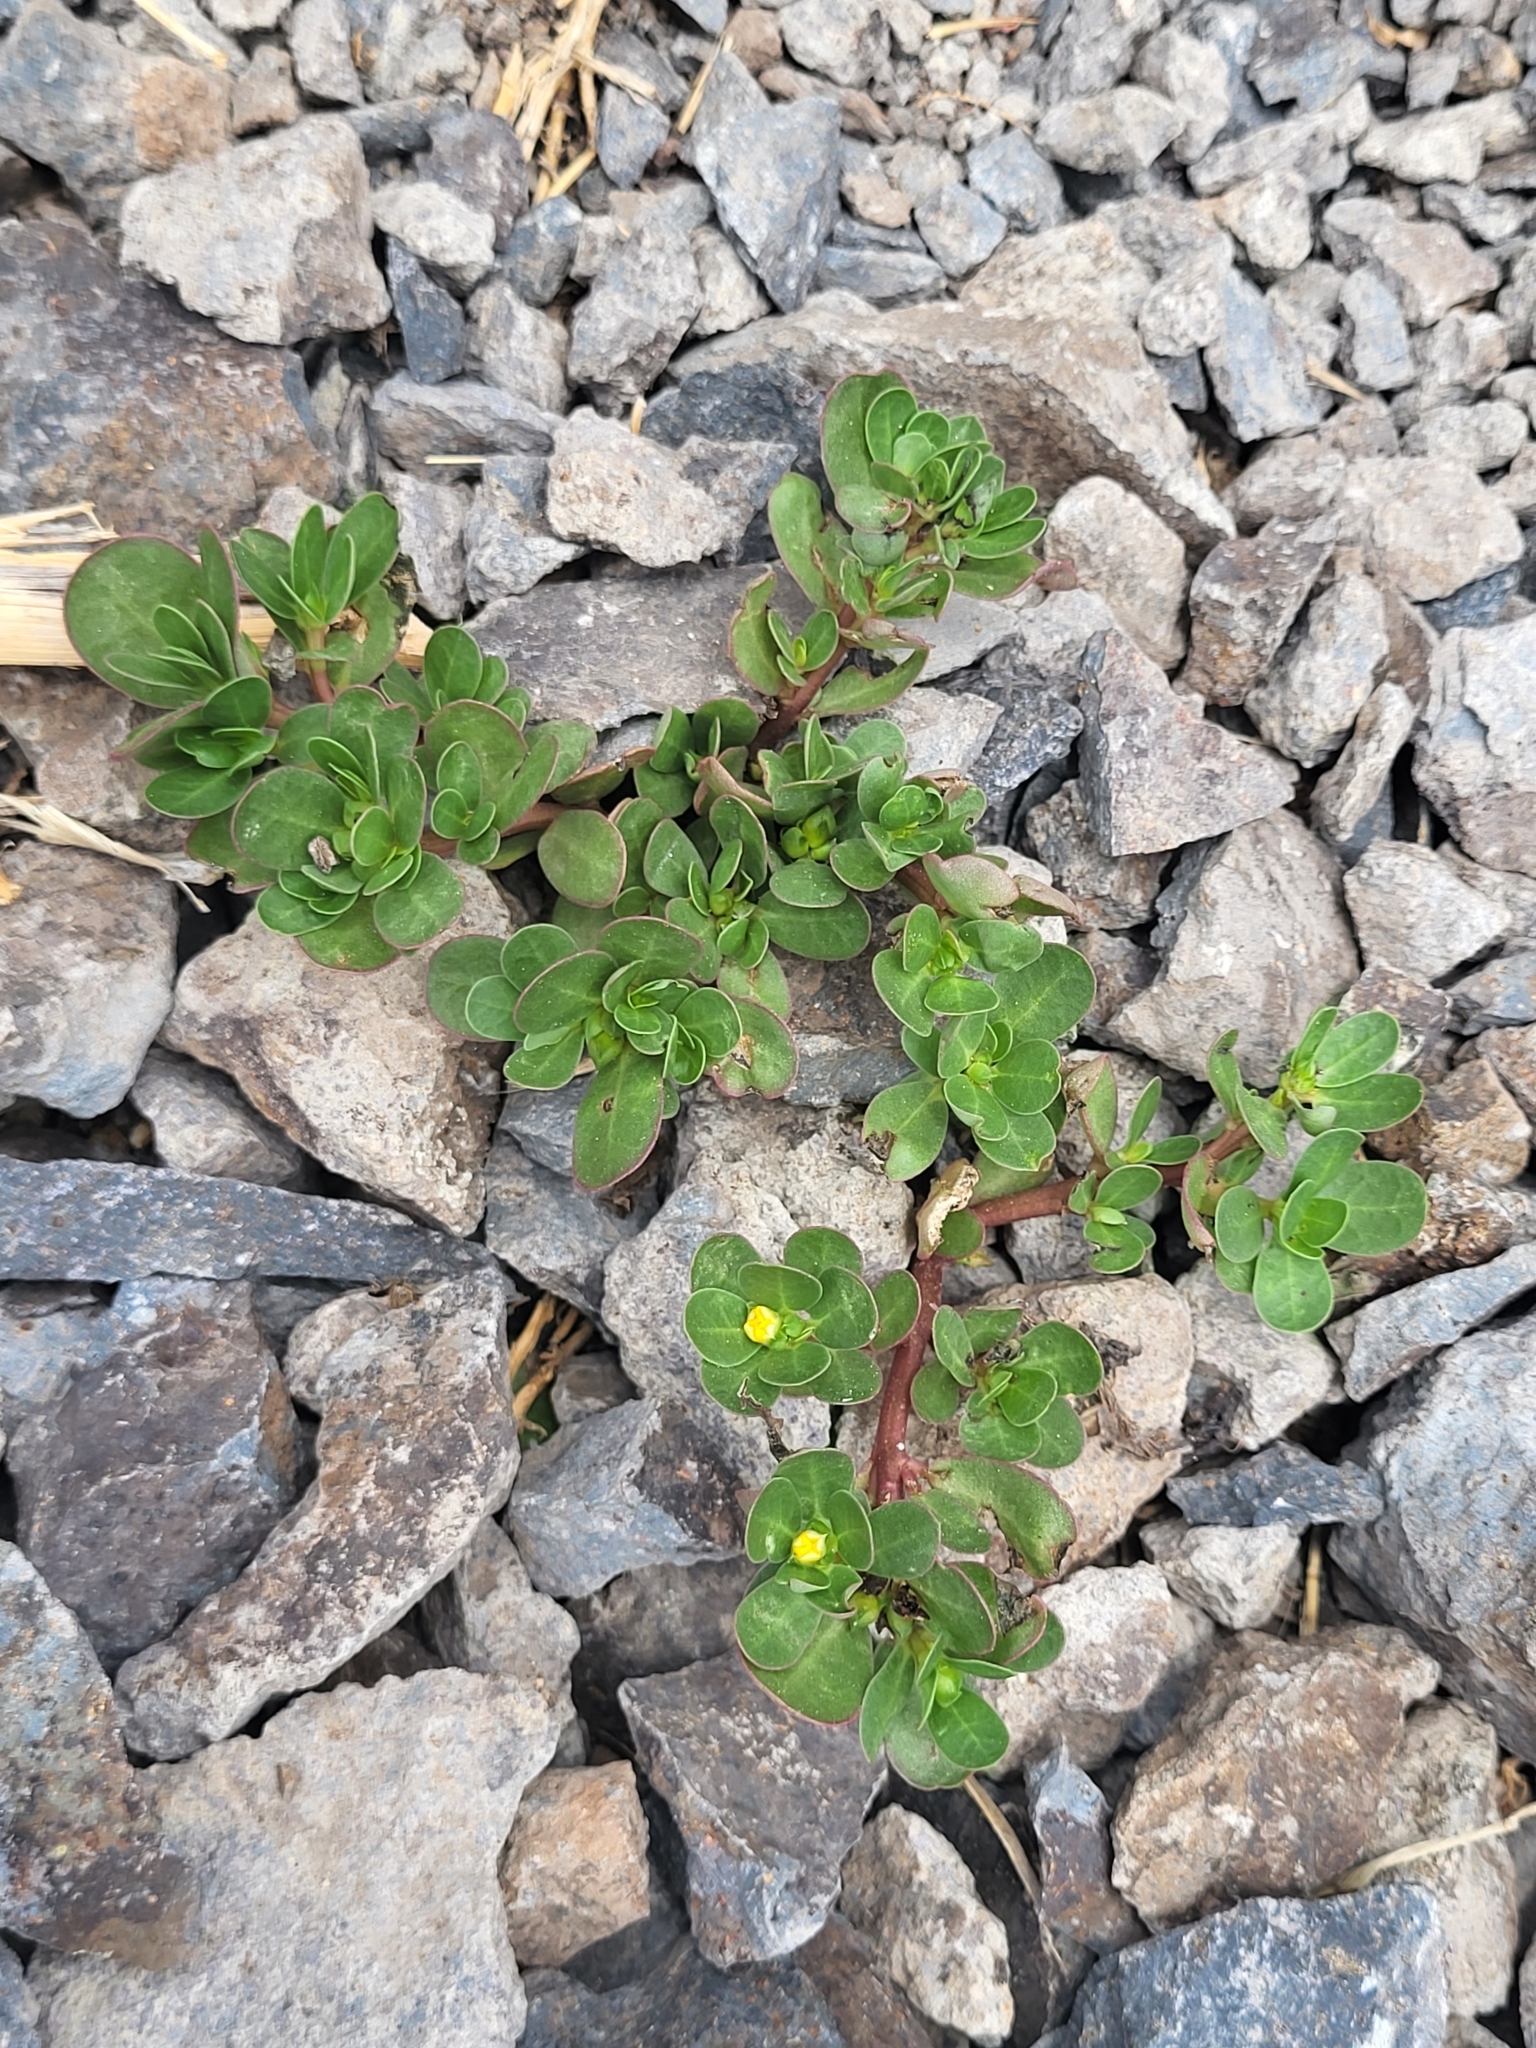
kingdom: Plantae
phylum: Tracheophyta
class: Magnoliopsida
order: Caryophyllales
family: Portulacaceae
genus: Portulaca
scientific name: Portulaca oleracea
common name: Common purslane
